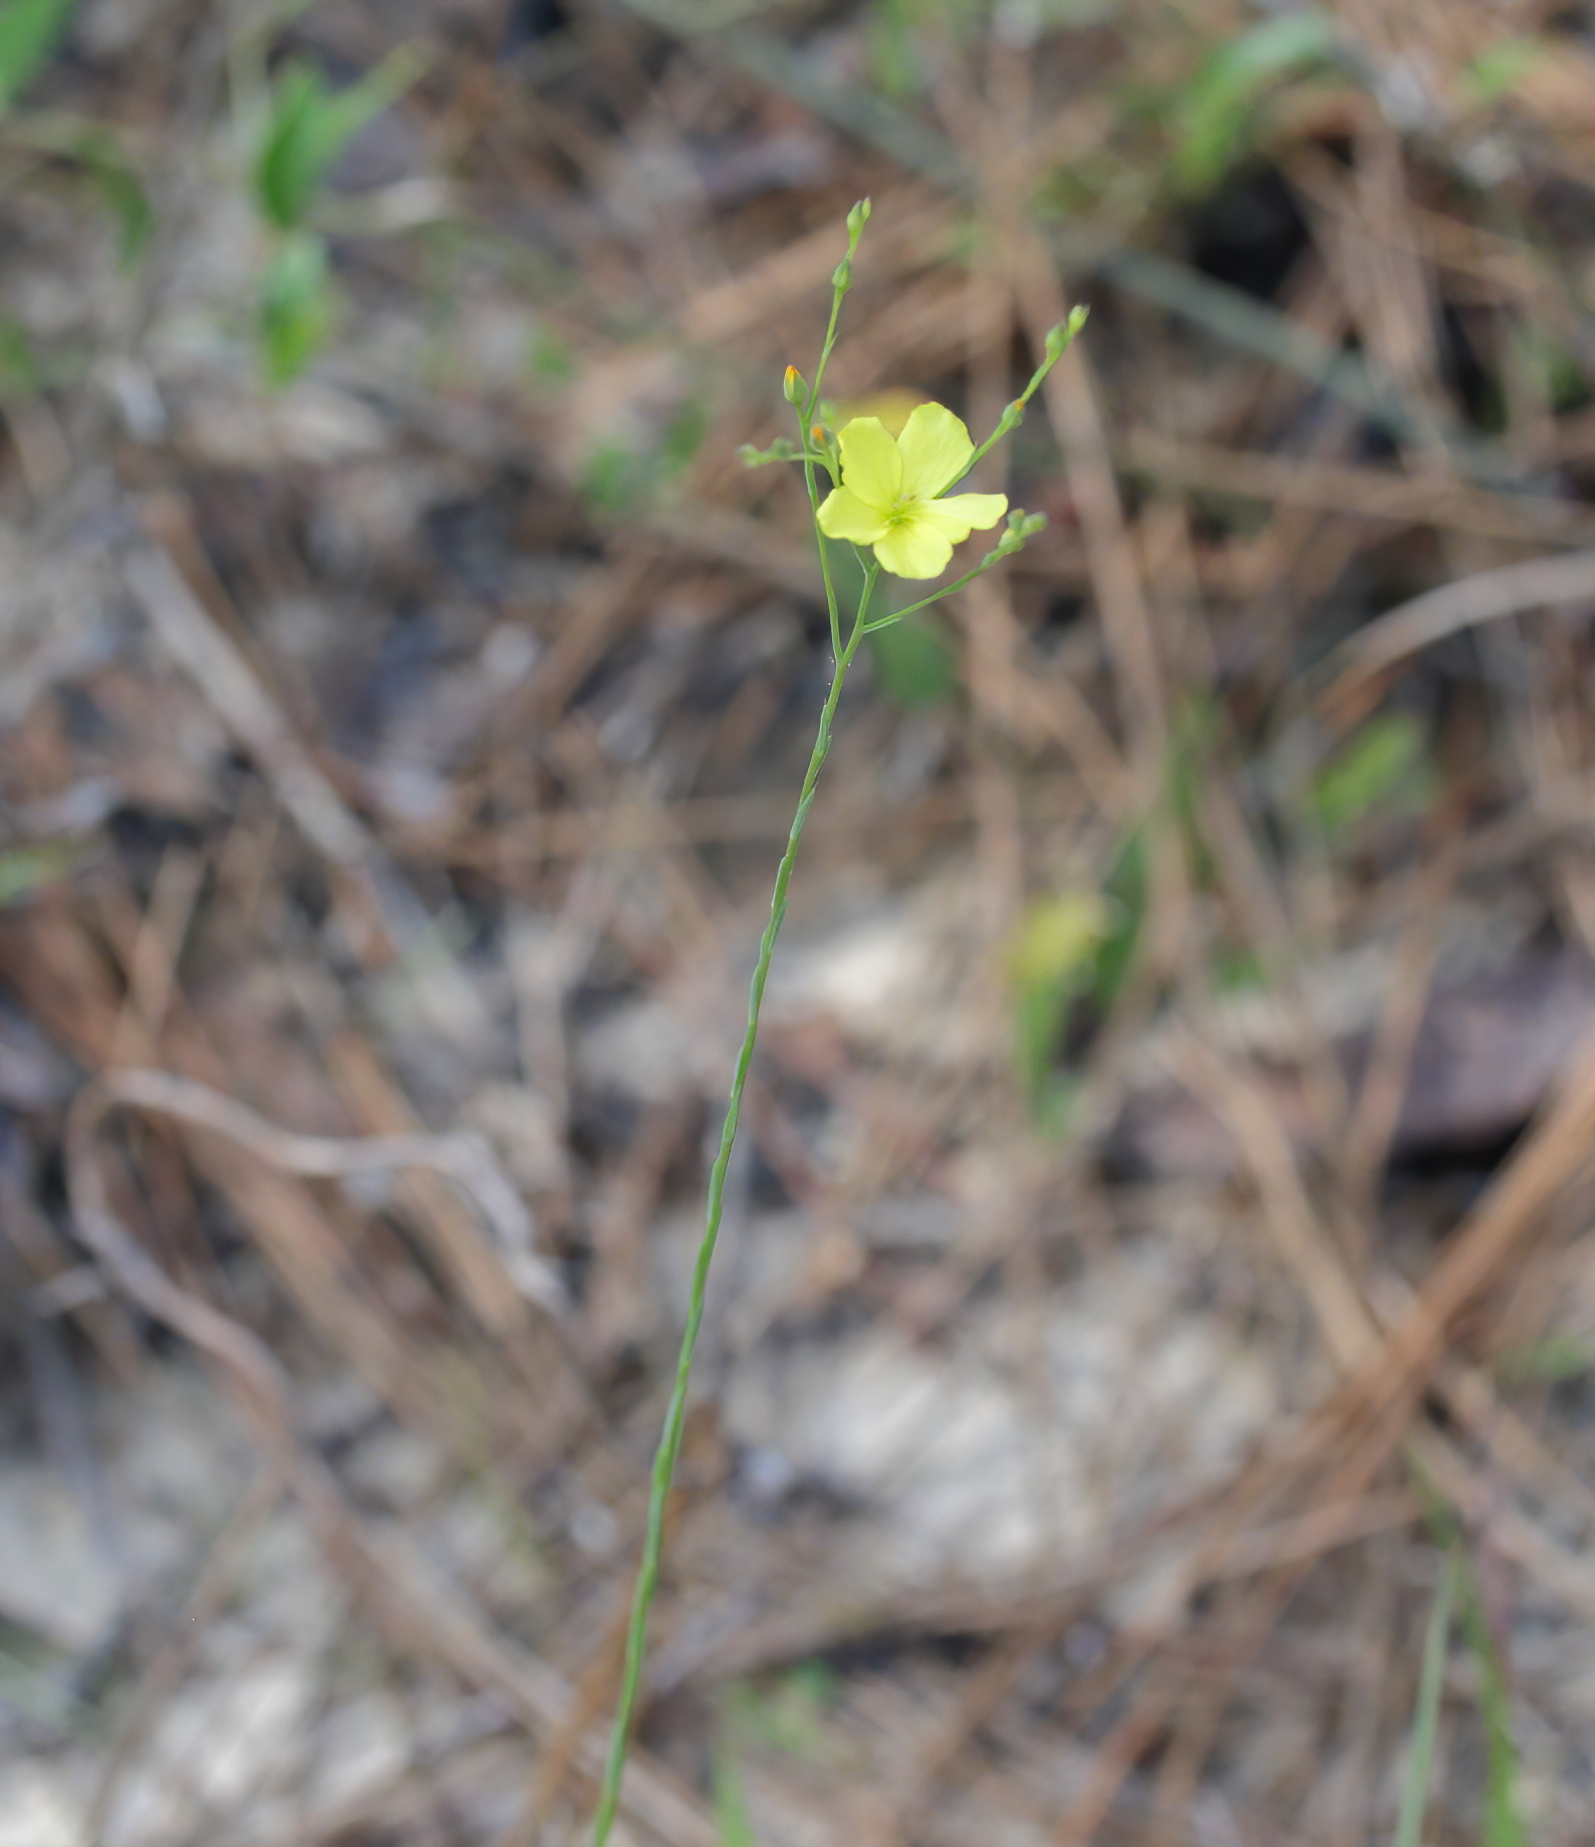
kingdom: Plantae
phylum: Tracheophyta
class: Magnoliopsida
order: Malpighiales
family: Linaceae
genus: Linum
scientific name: Linum medium
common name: Stiff yellow flax
